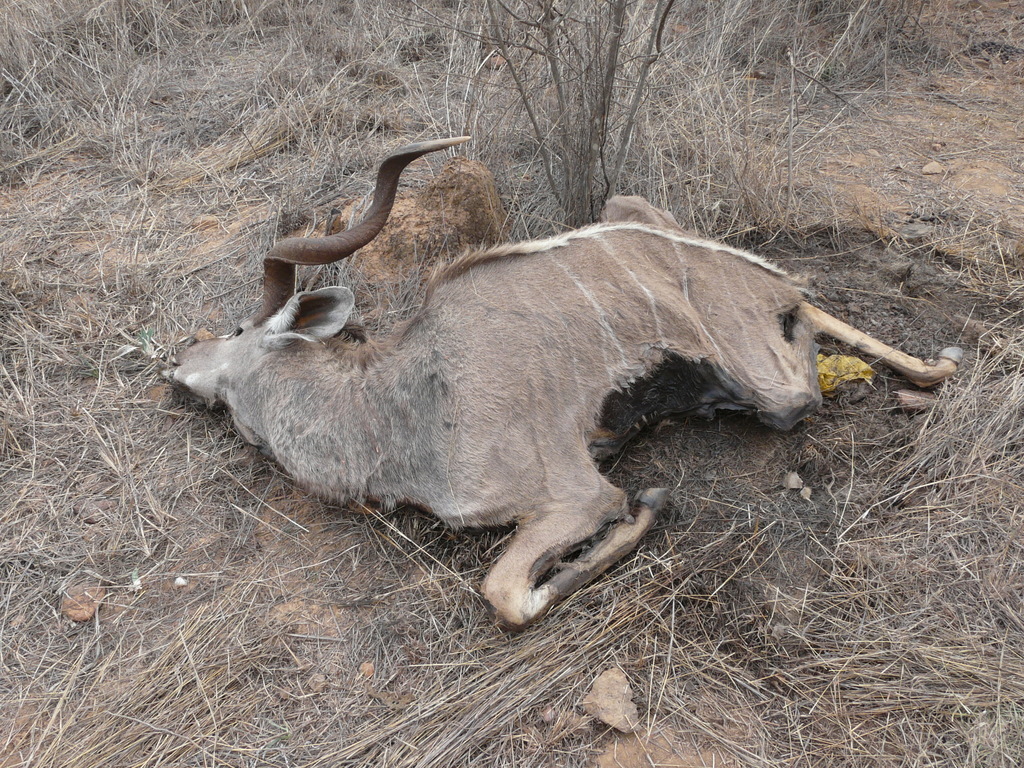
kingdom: Animalia
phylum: Chordata
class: Mammalia
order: Artiodactyla
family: Bovidae
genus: Tragelaphus
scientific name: Tragelaphus strepsiceros
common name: Greater kudu
